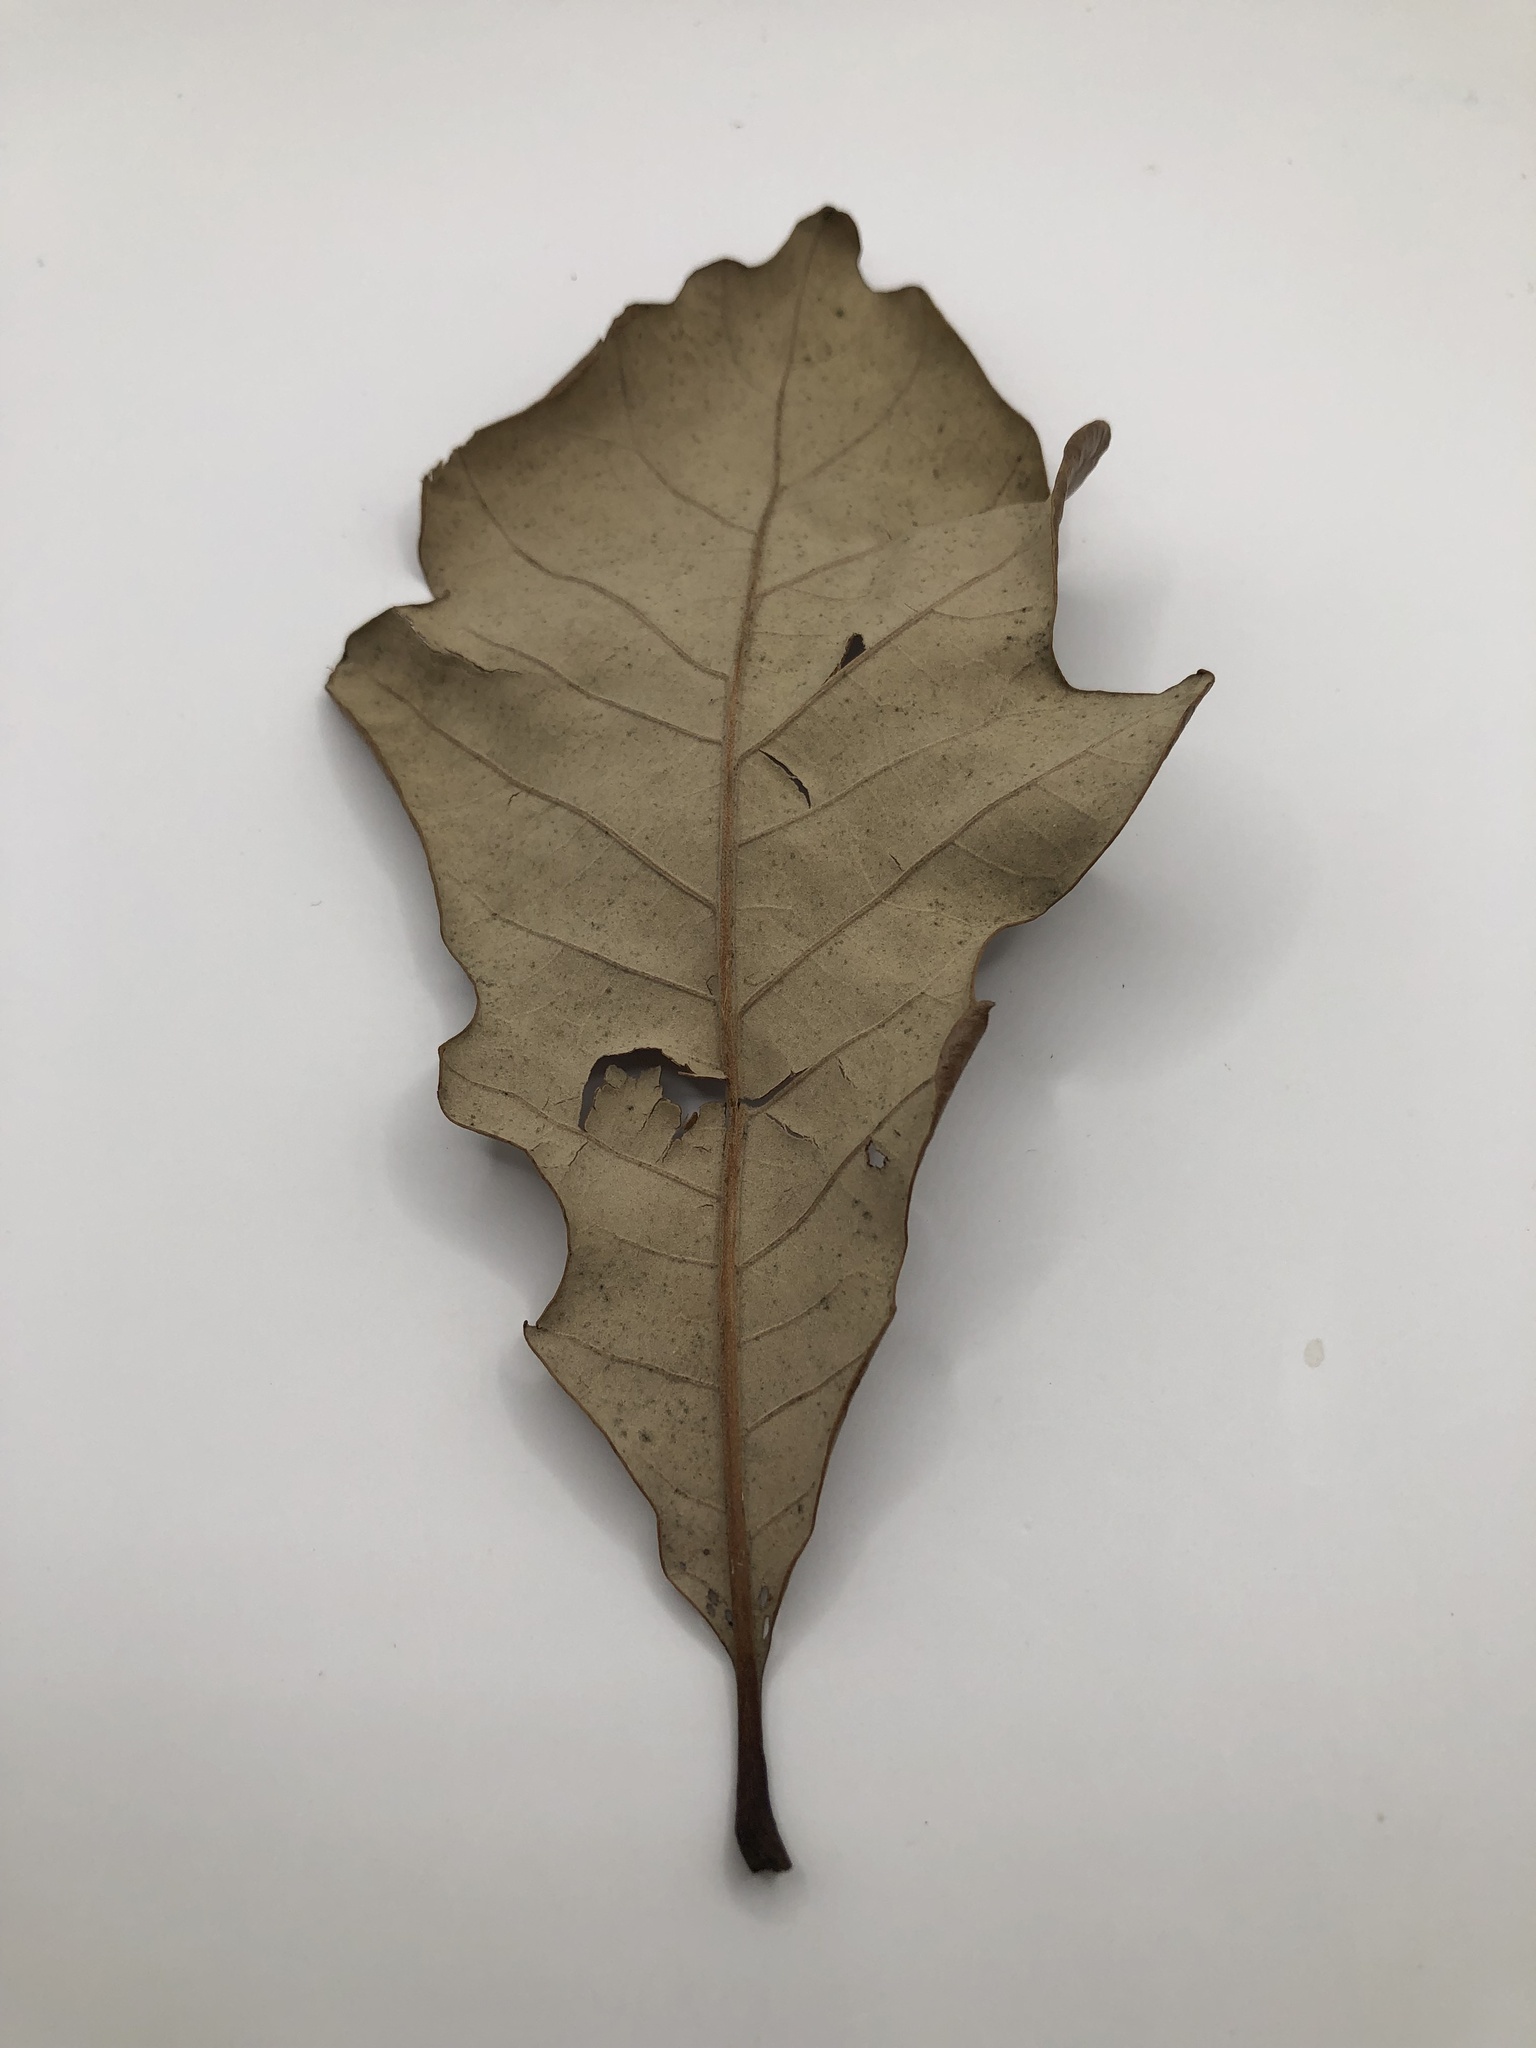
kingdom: Plantae
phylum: Tracheophyta
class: Magnoliopsida
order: Fagales
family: Fagaceae
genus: Quercus
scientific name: Quercus bicolor
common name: Swamp white oak
